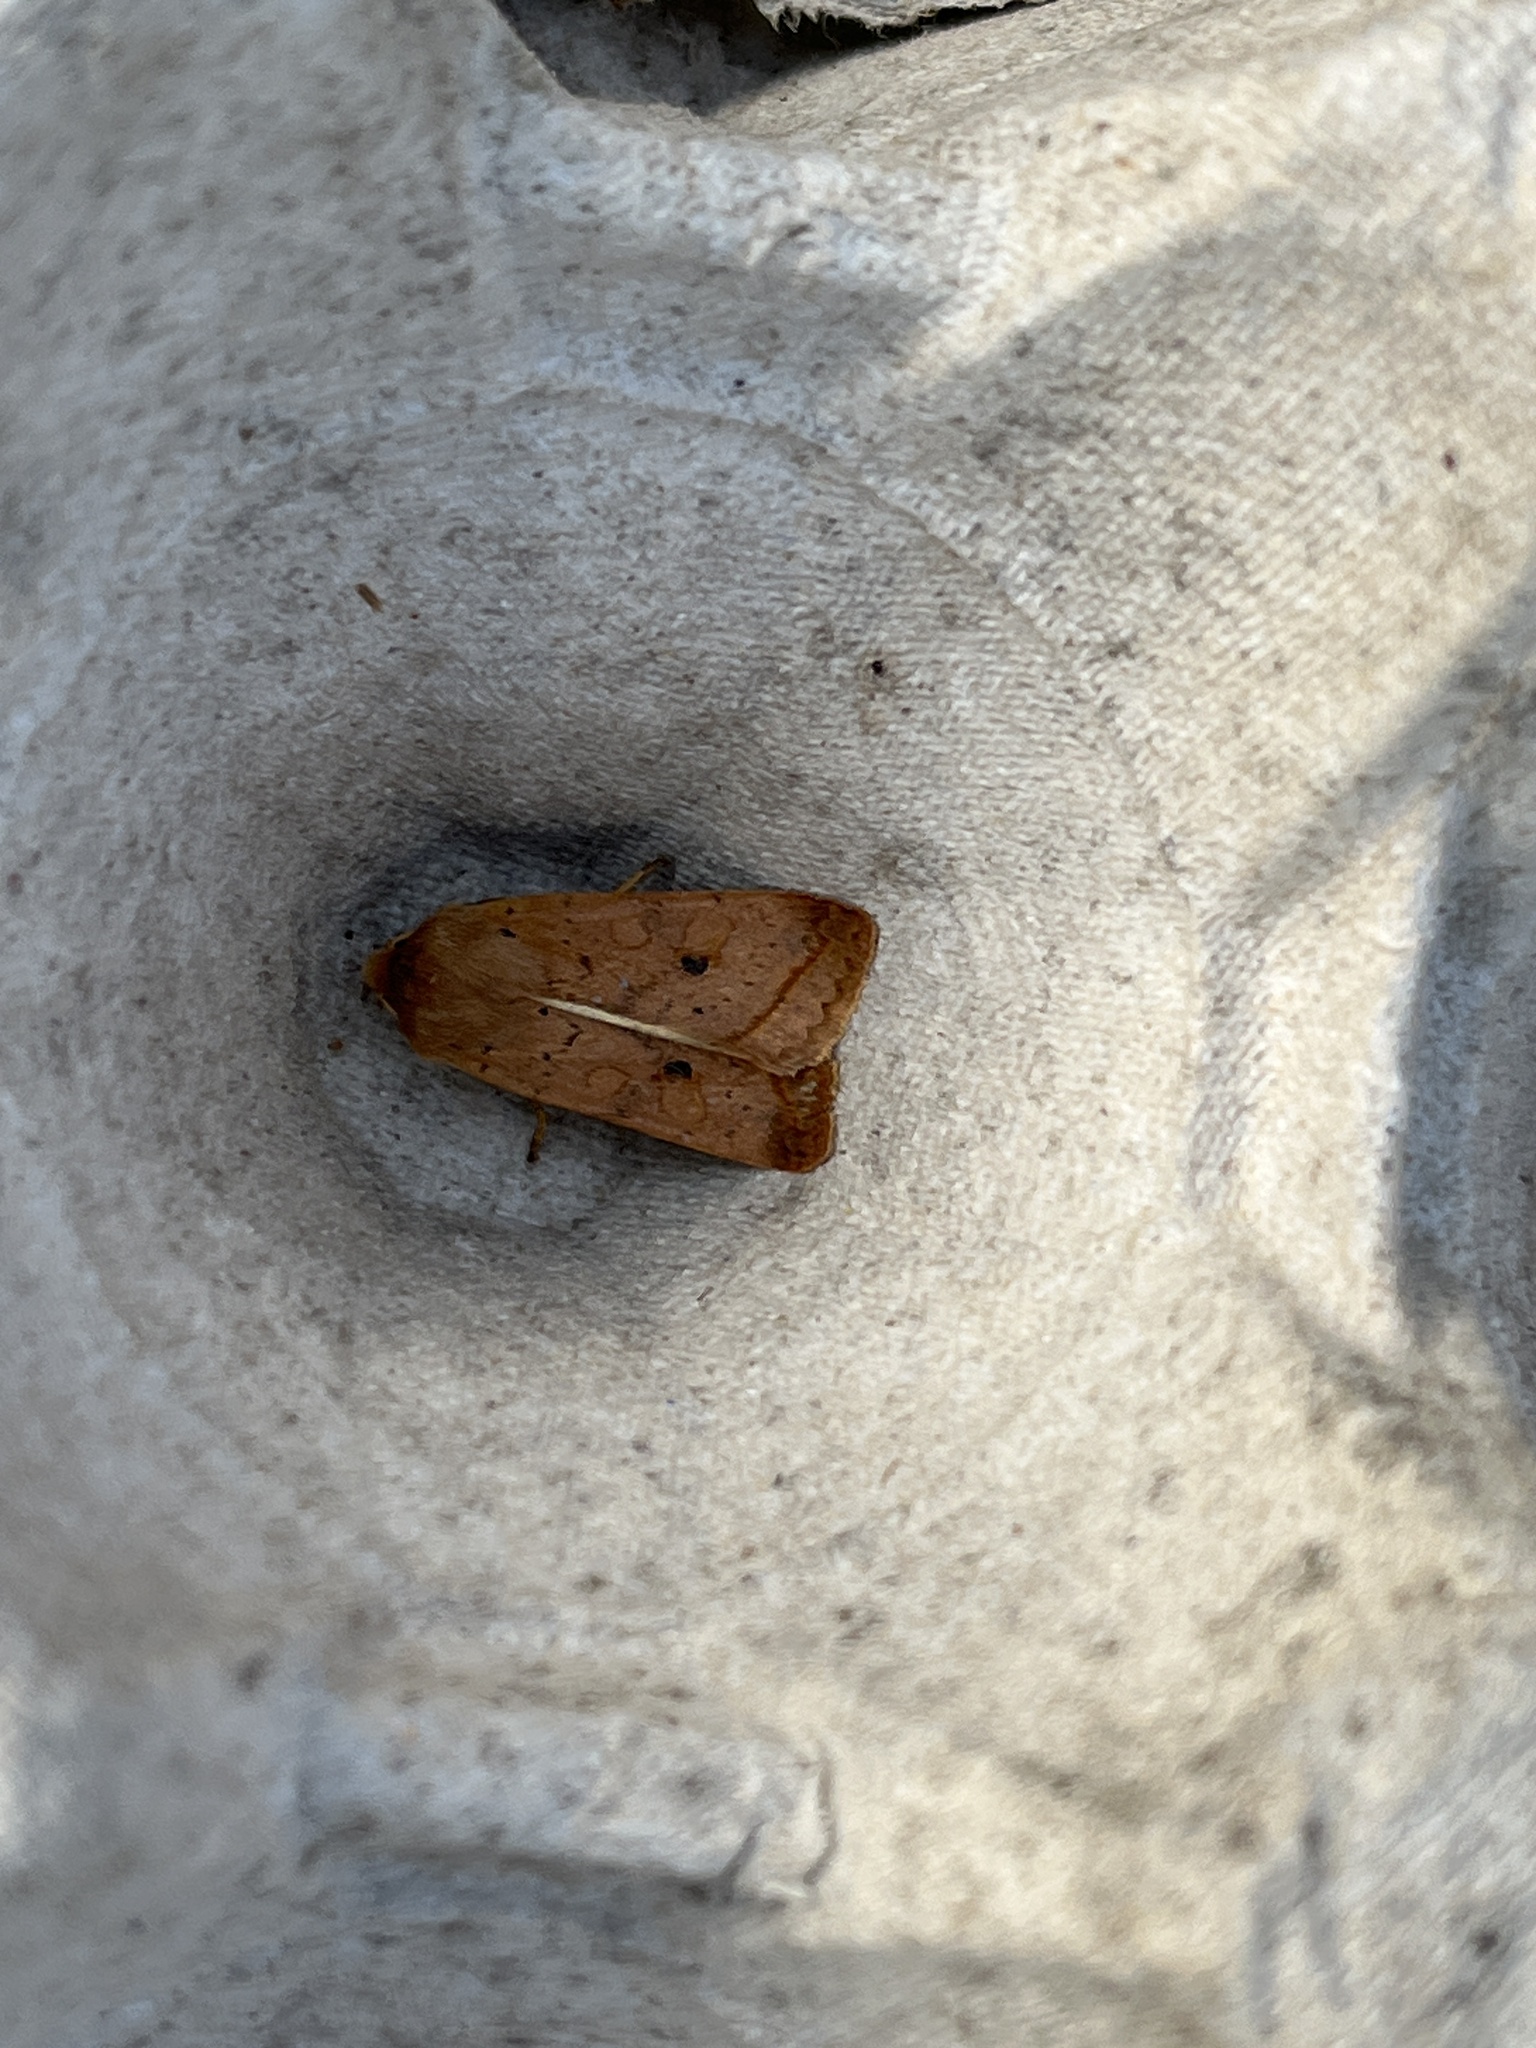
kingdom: Animalia
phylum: Arthropoda
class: Insecta
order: Lepidoptera
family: Noctuidae
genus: Agrochola
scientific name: Agrochola macilenta
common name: Yellow-line quaker
